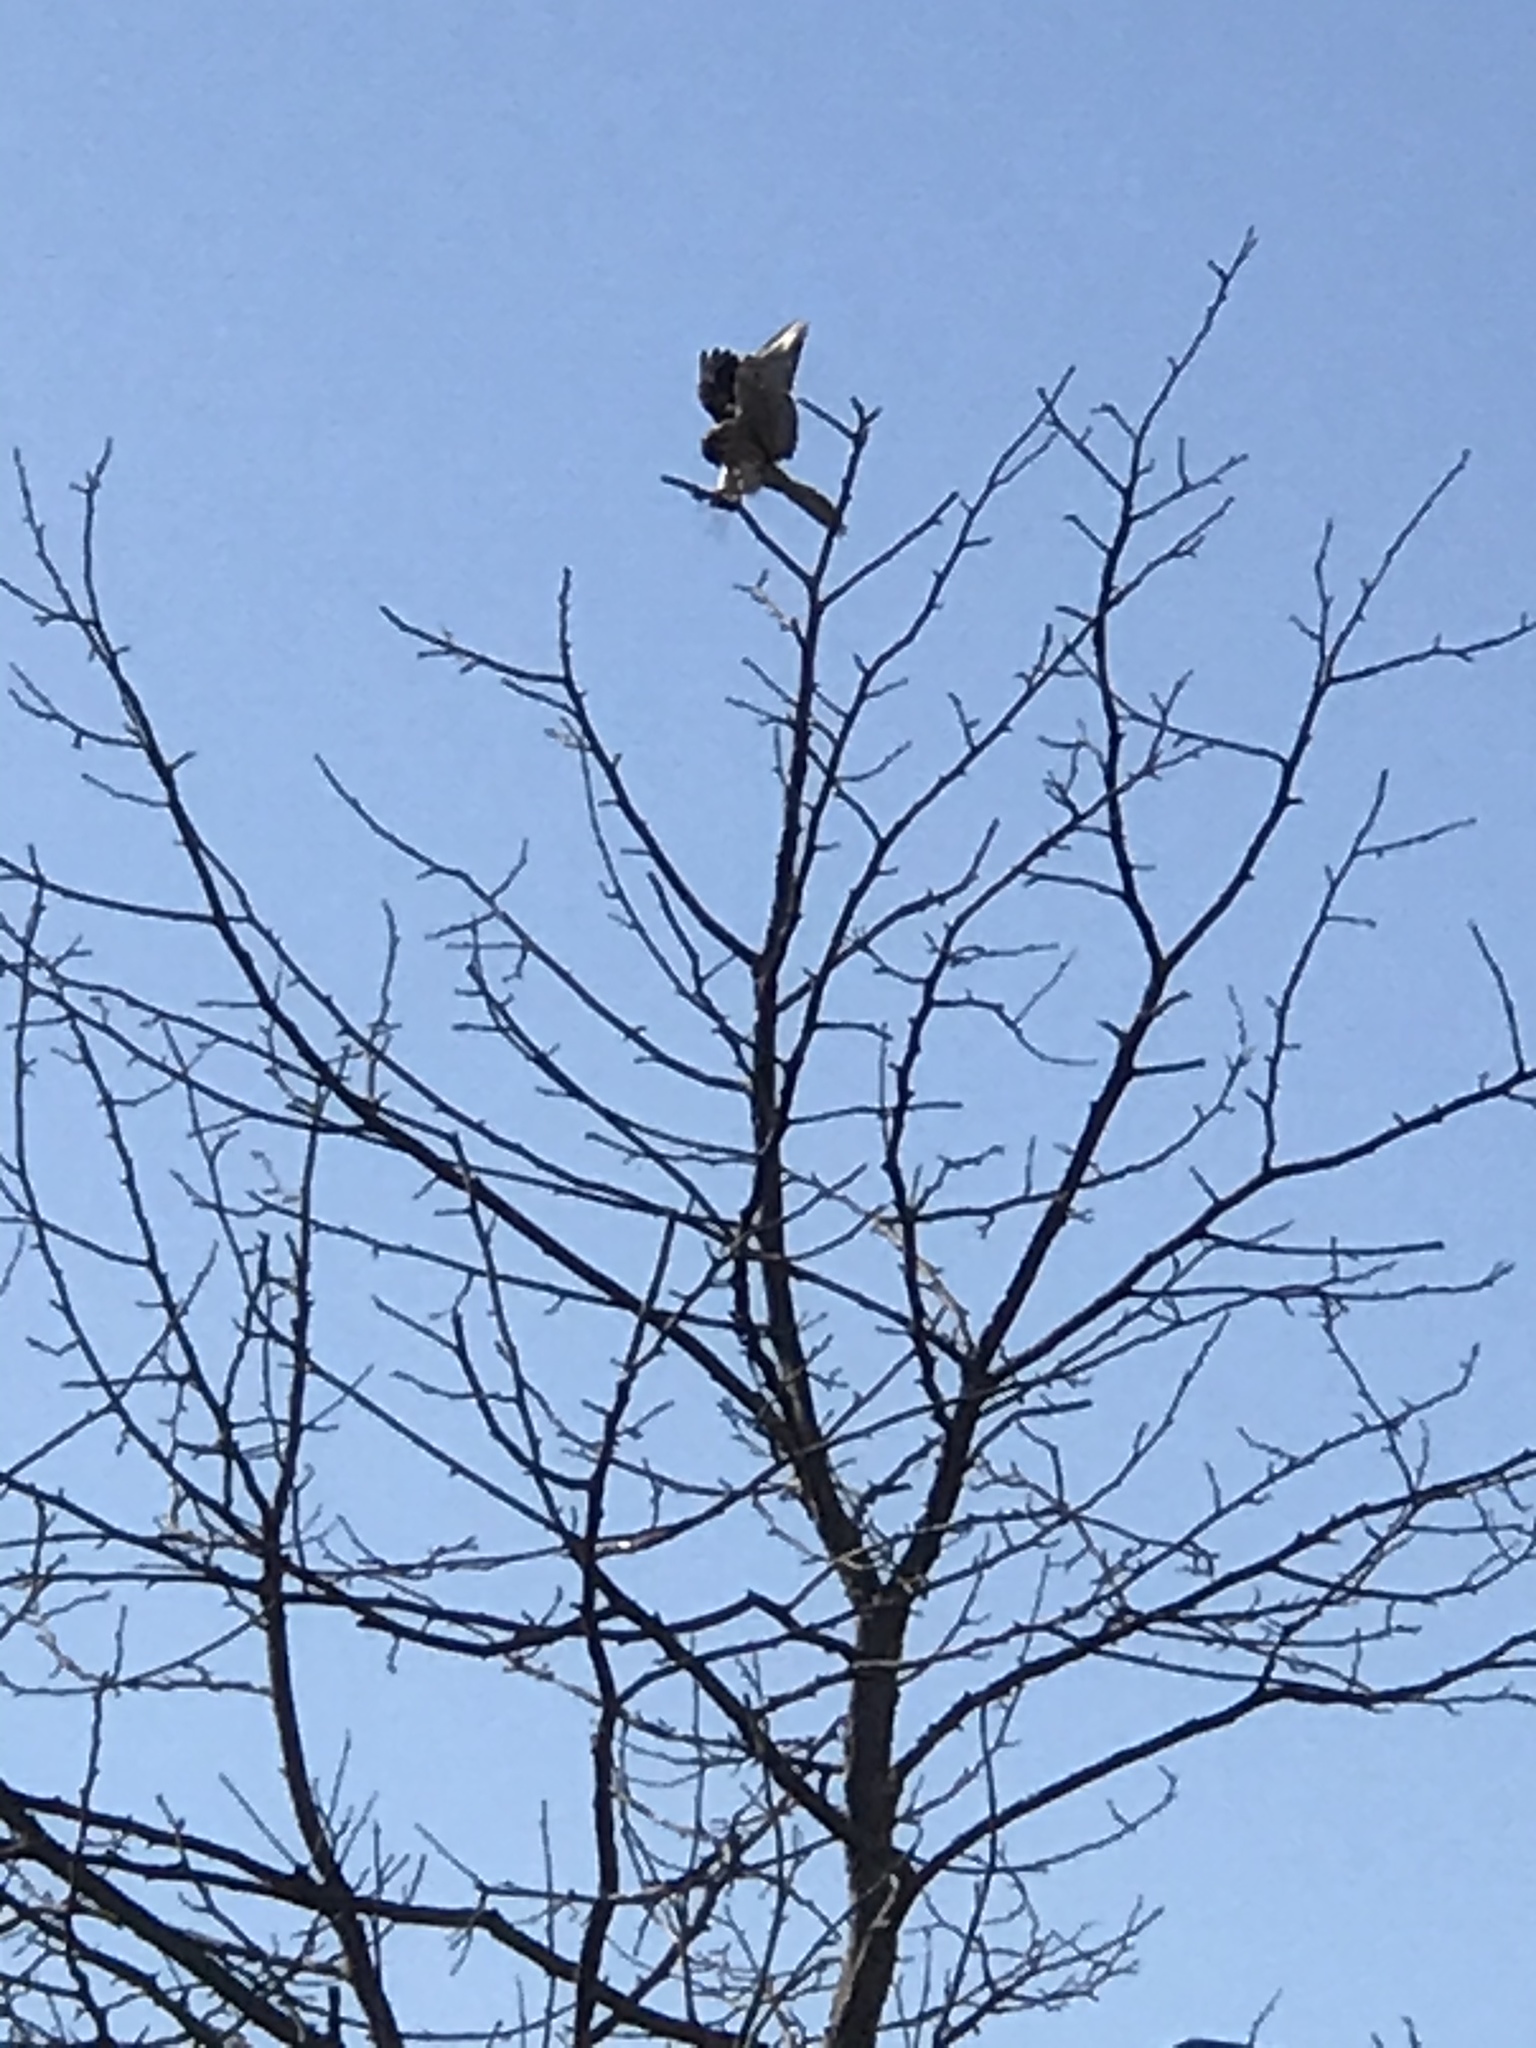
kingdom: Animalia
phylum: Chordata
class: Aves
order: Falconiformes
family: Falconidae
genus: Falco
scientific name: Falco sparverius
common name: American kestrel
